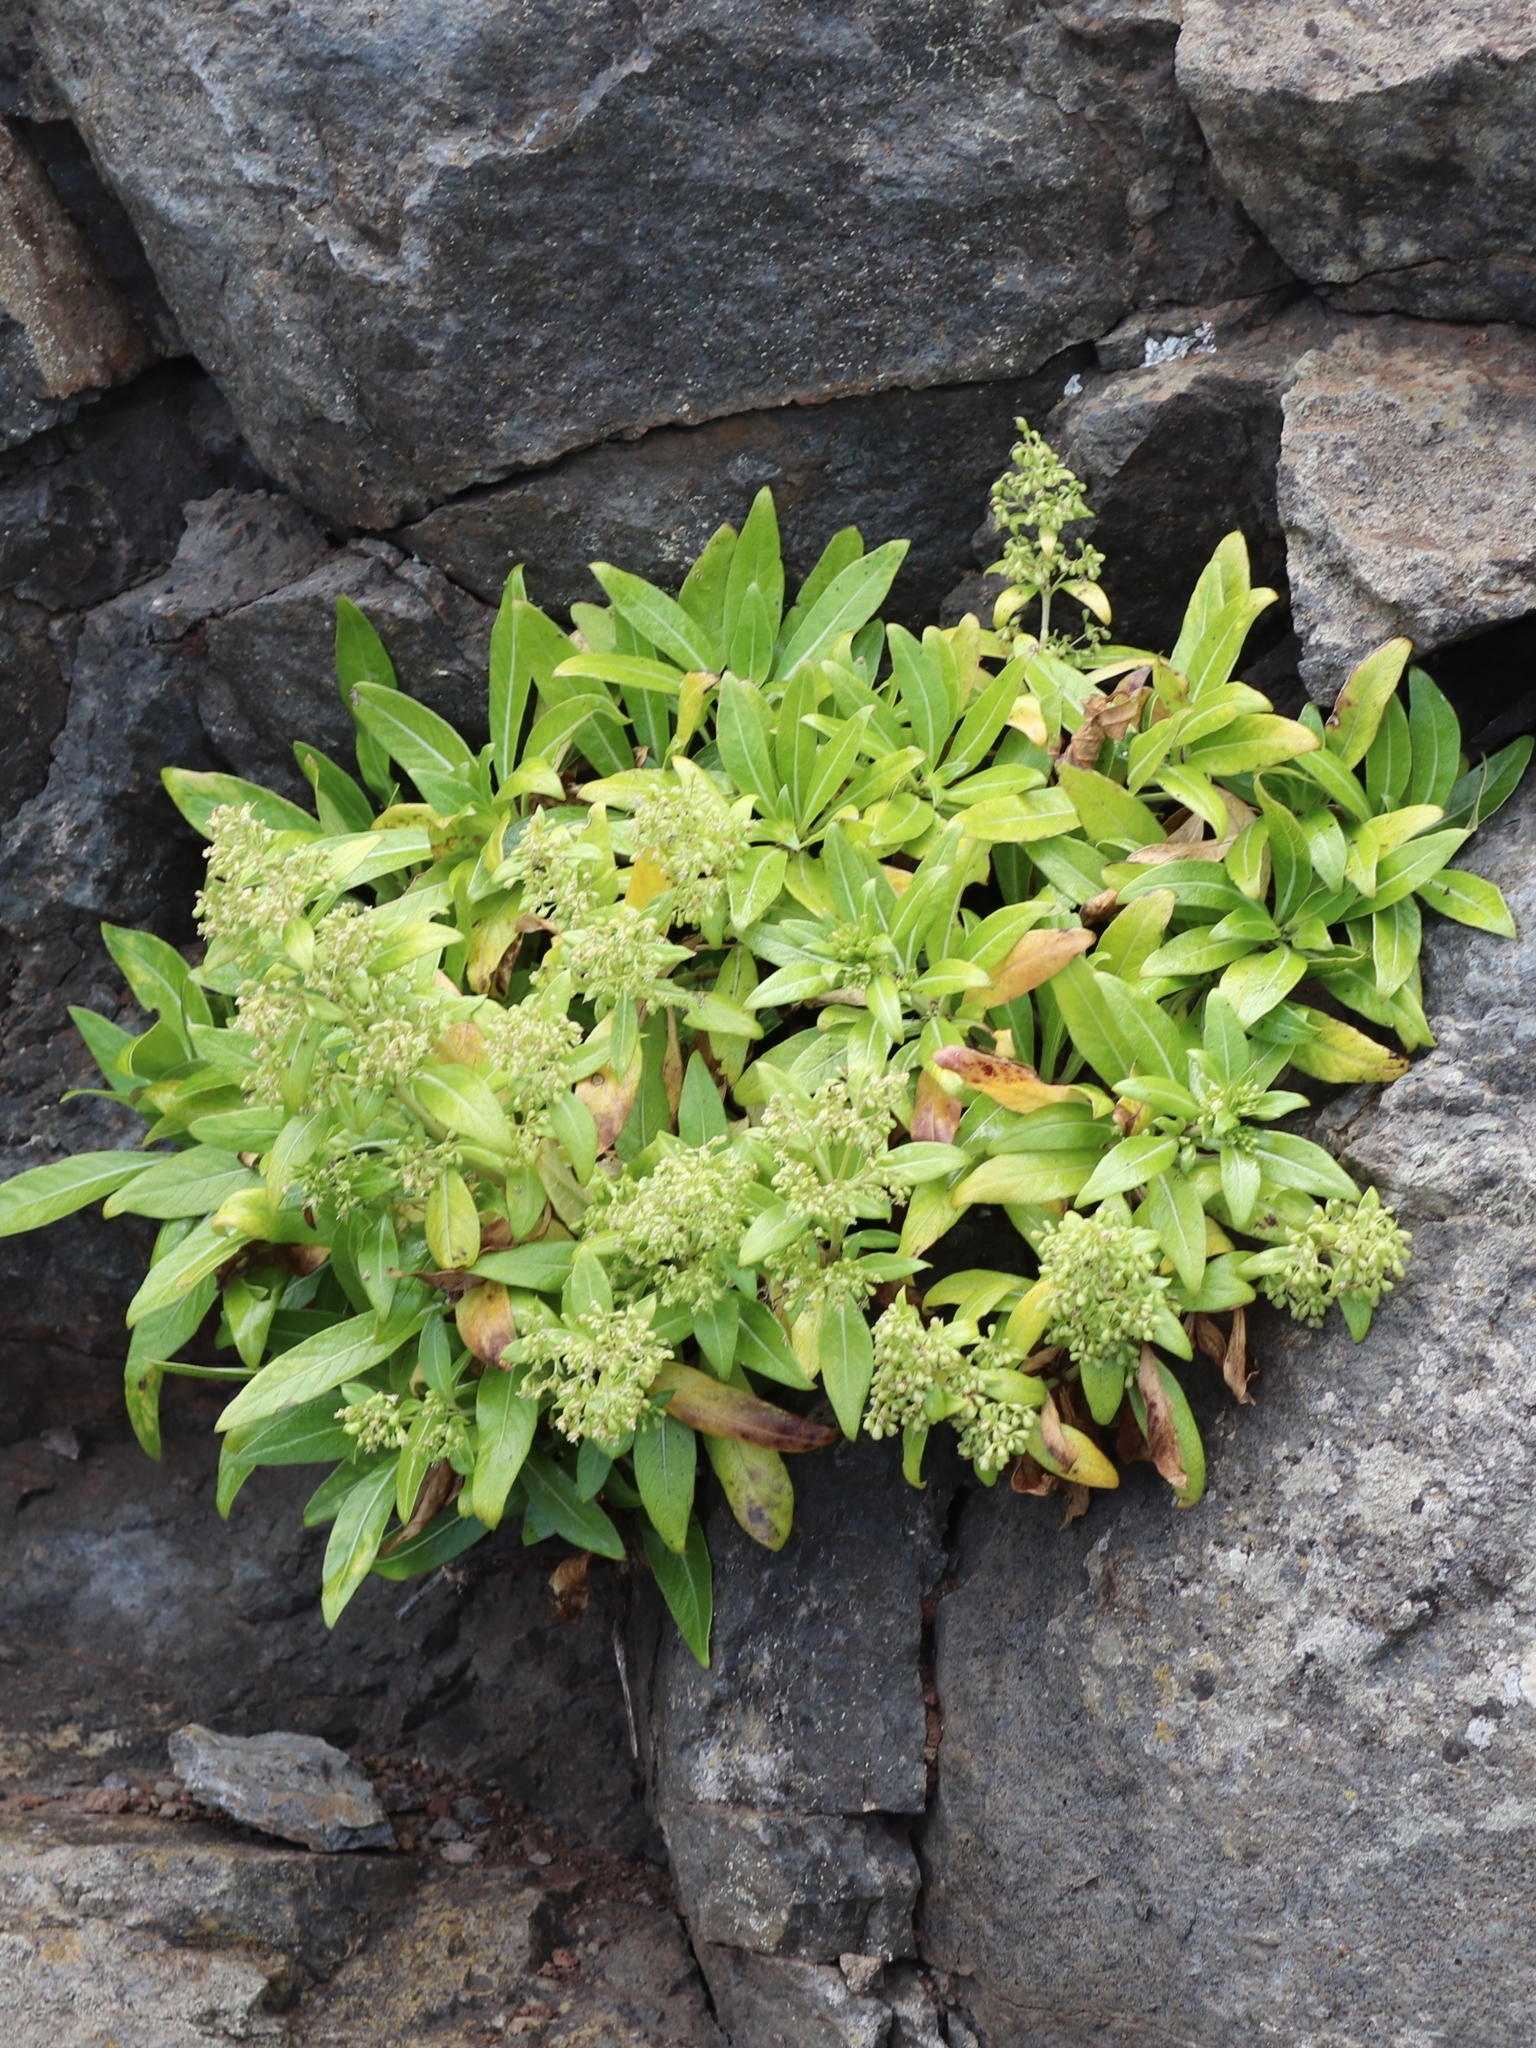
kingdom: Plantae
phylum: Tracheophyta
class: Magnoliopsida
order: Gentianales
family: Rubiaceae
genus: Phyllis
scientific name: Phyllis nobla
